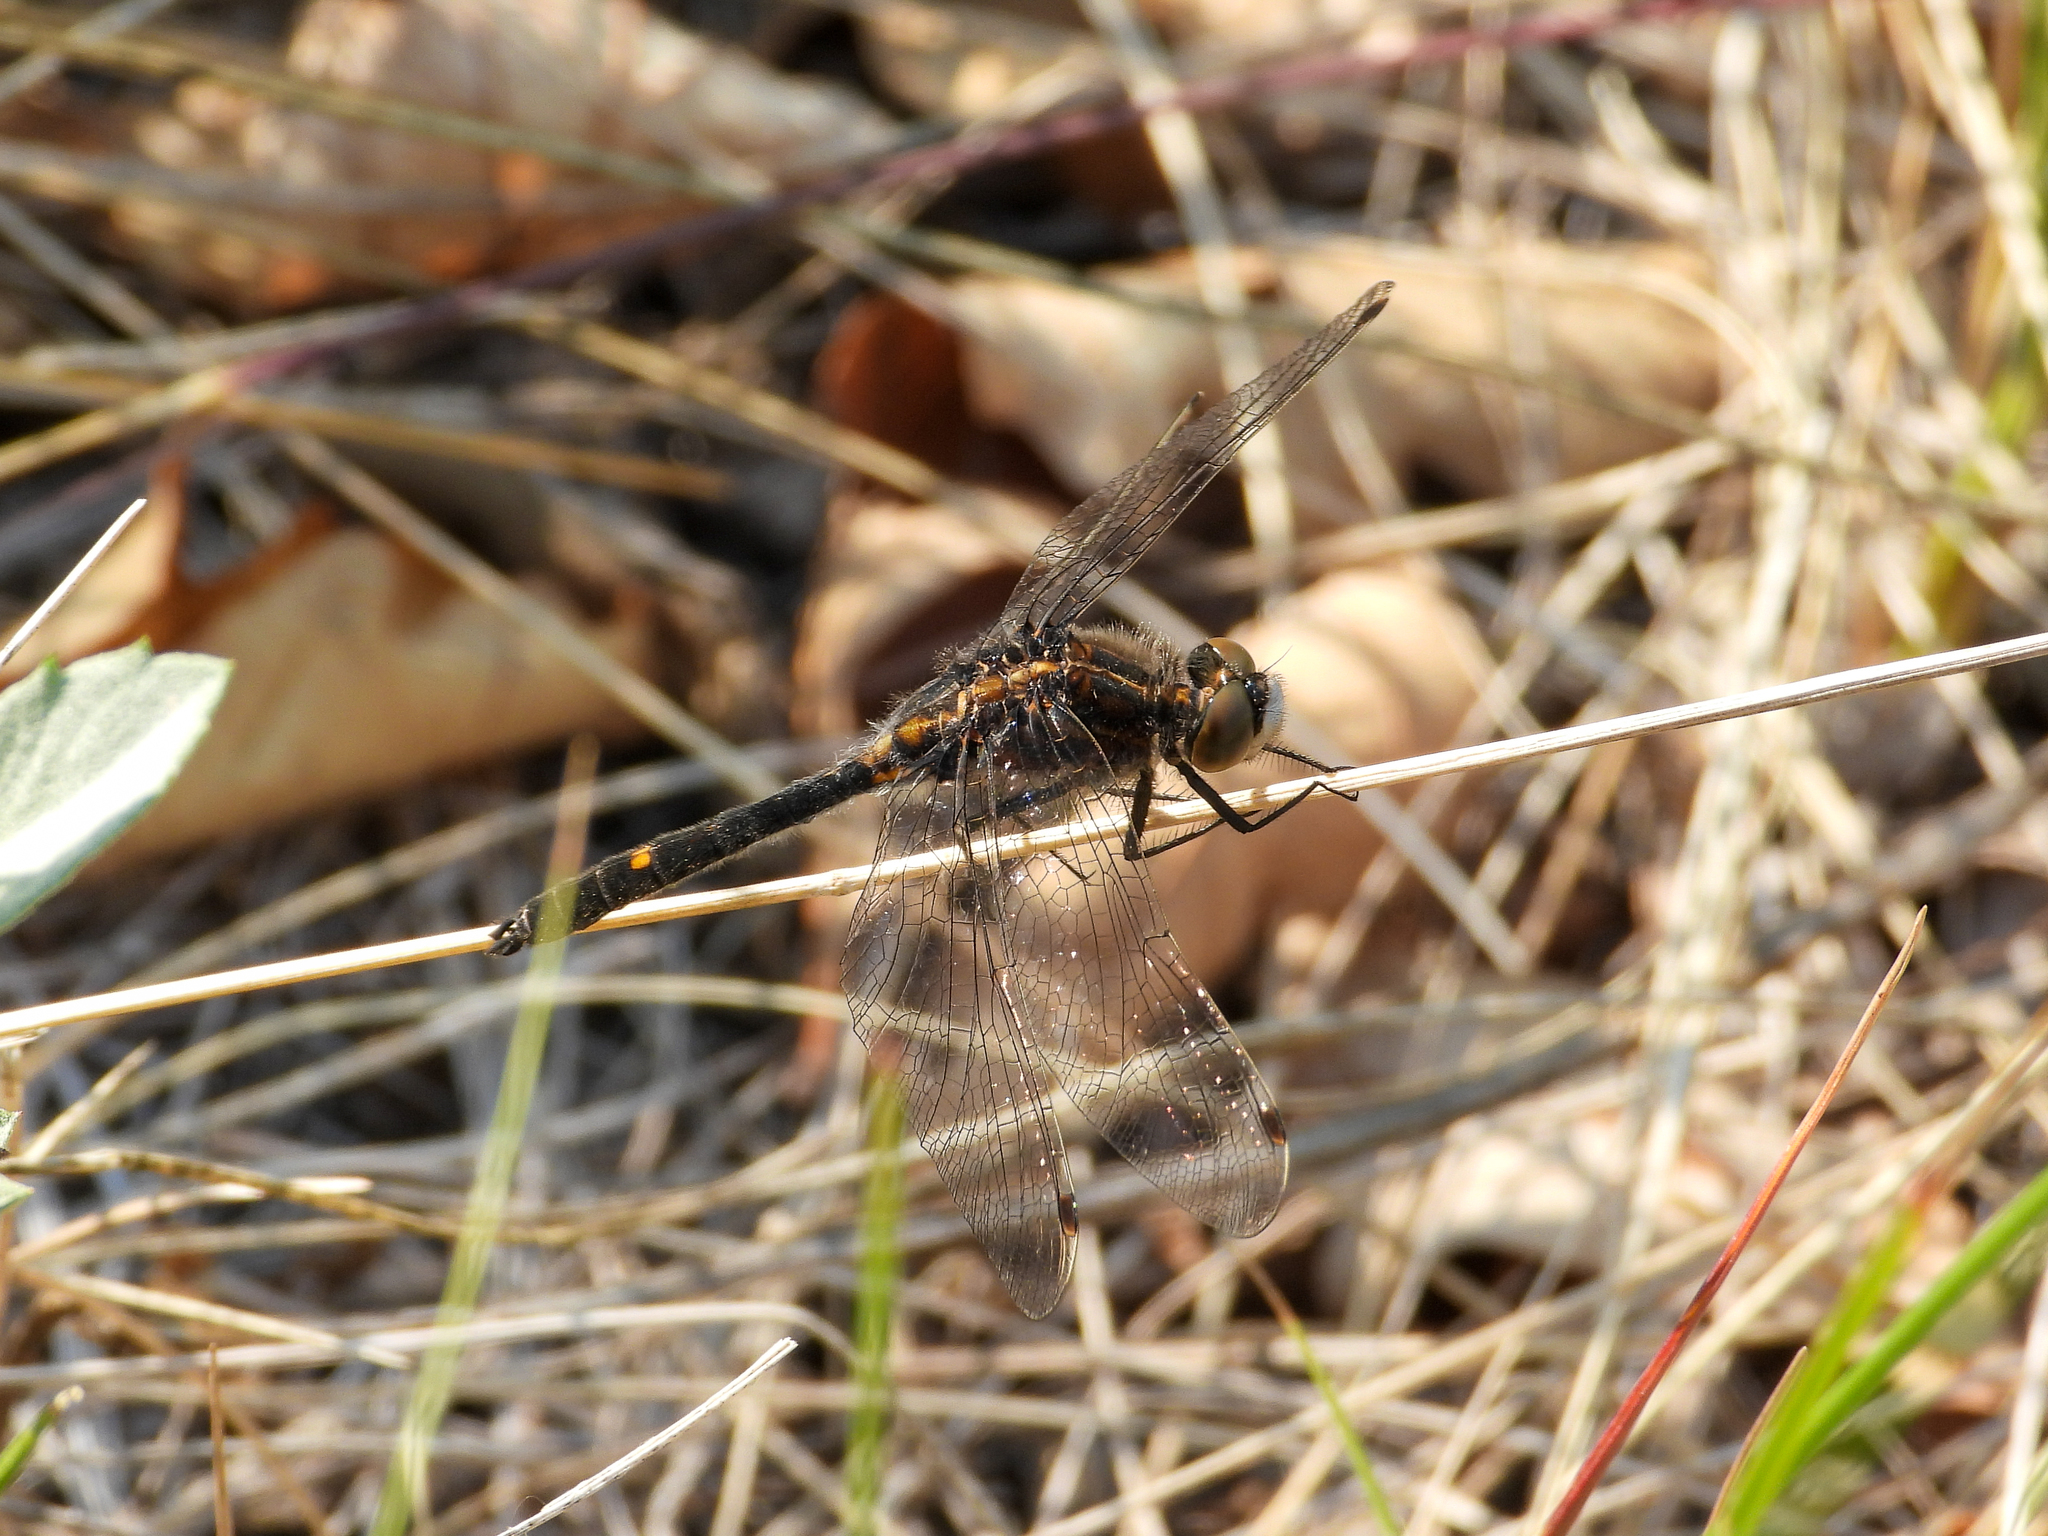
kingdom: Animalia
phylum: Arthropoda
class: Insecta
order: Odonata
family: Libellulidae
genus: Leucorrhinia
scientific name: Leucorrhinia intacta
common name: Dot-tailed whiteface
